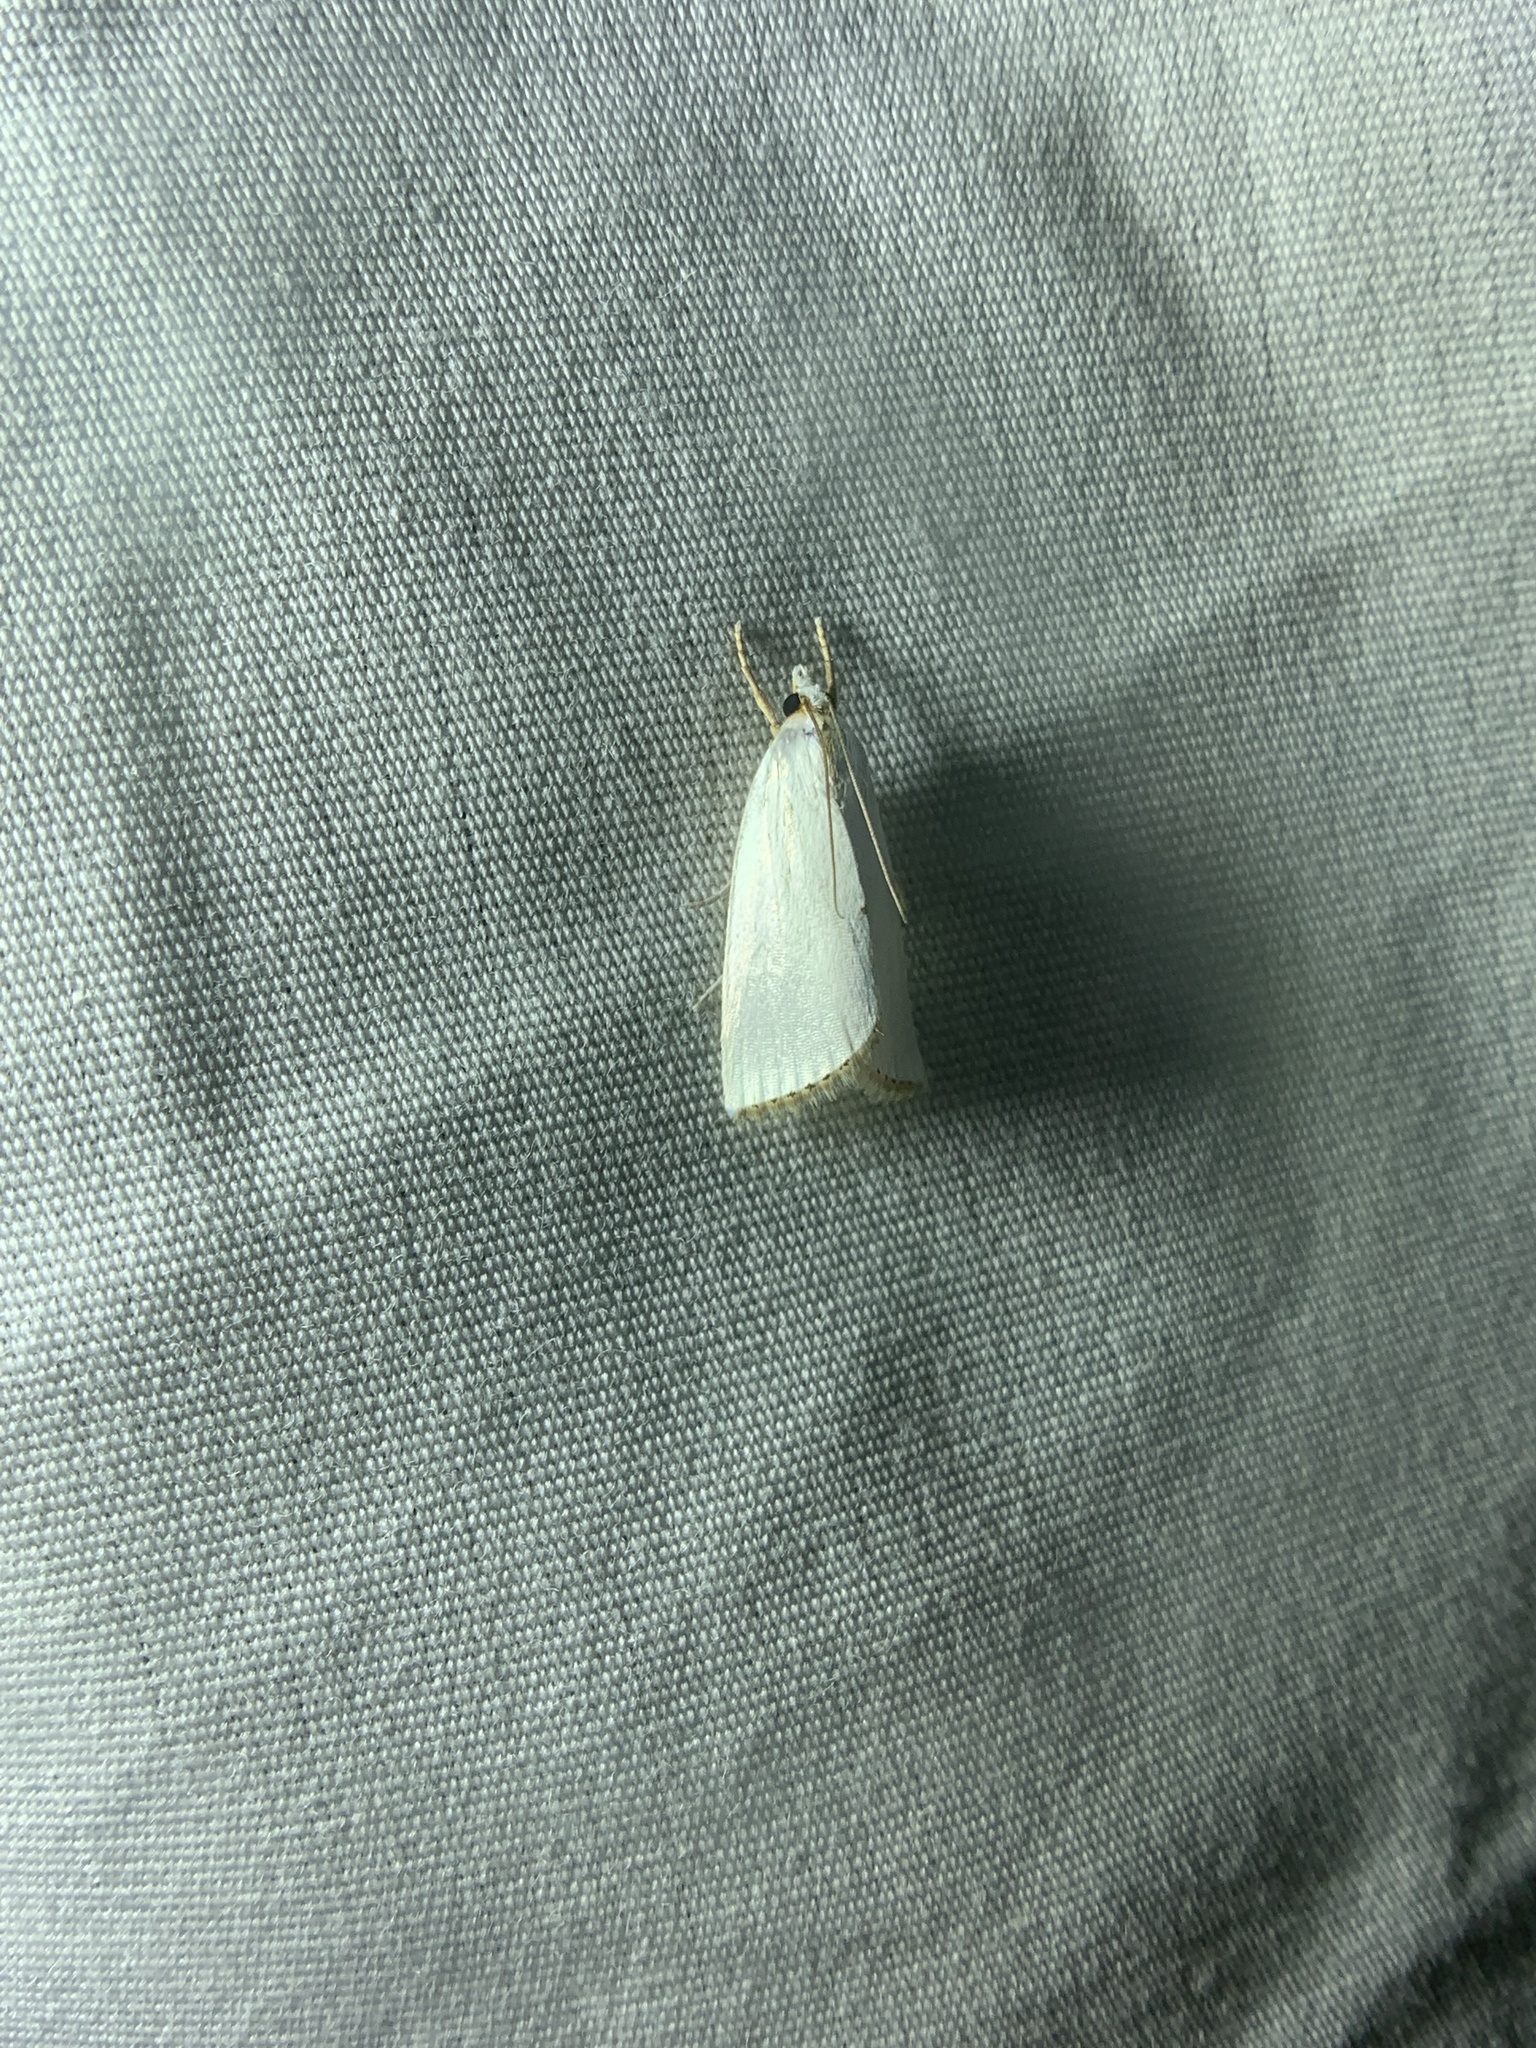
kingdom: Animalia
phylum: Arthropoda
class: Insecta
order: Lepidoptera
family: Crambidae
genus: Argyria
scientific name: Argyria nivalis
